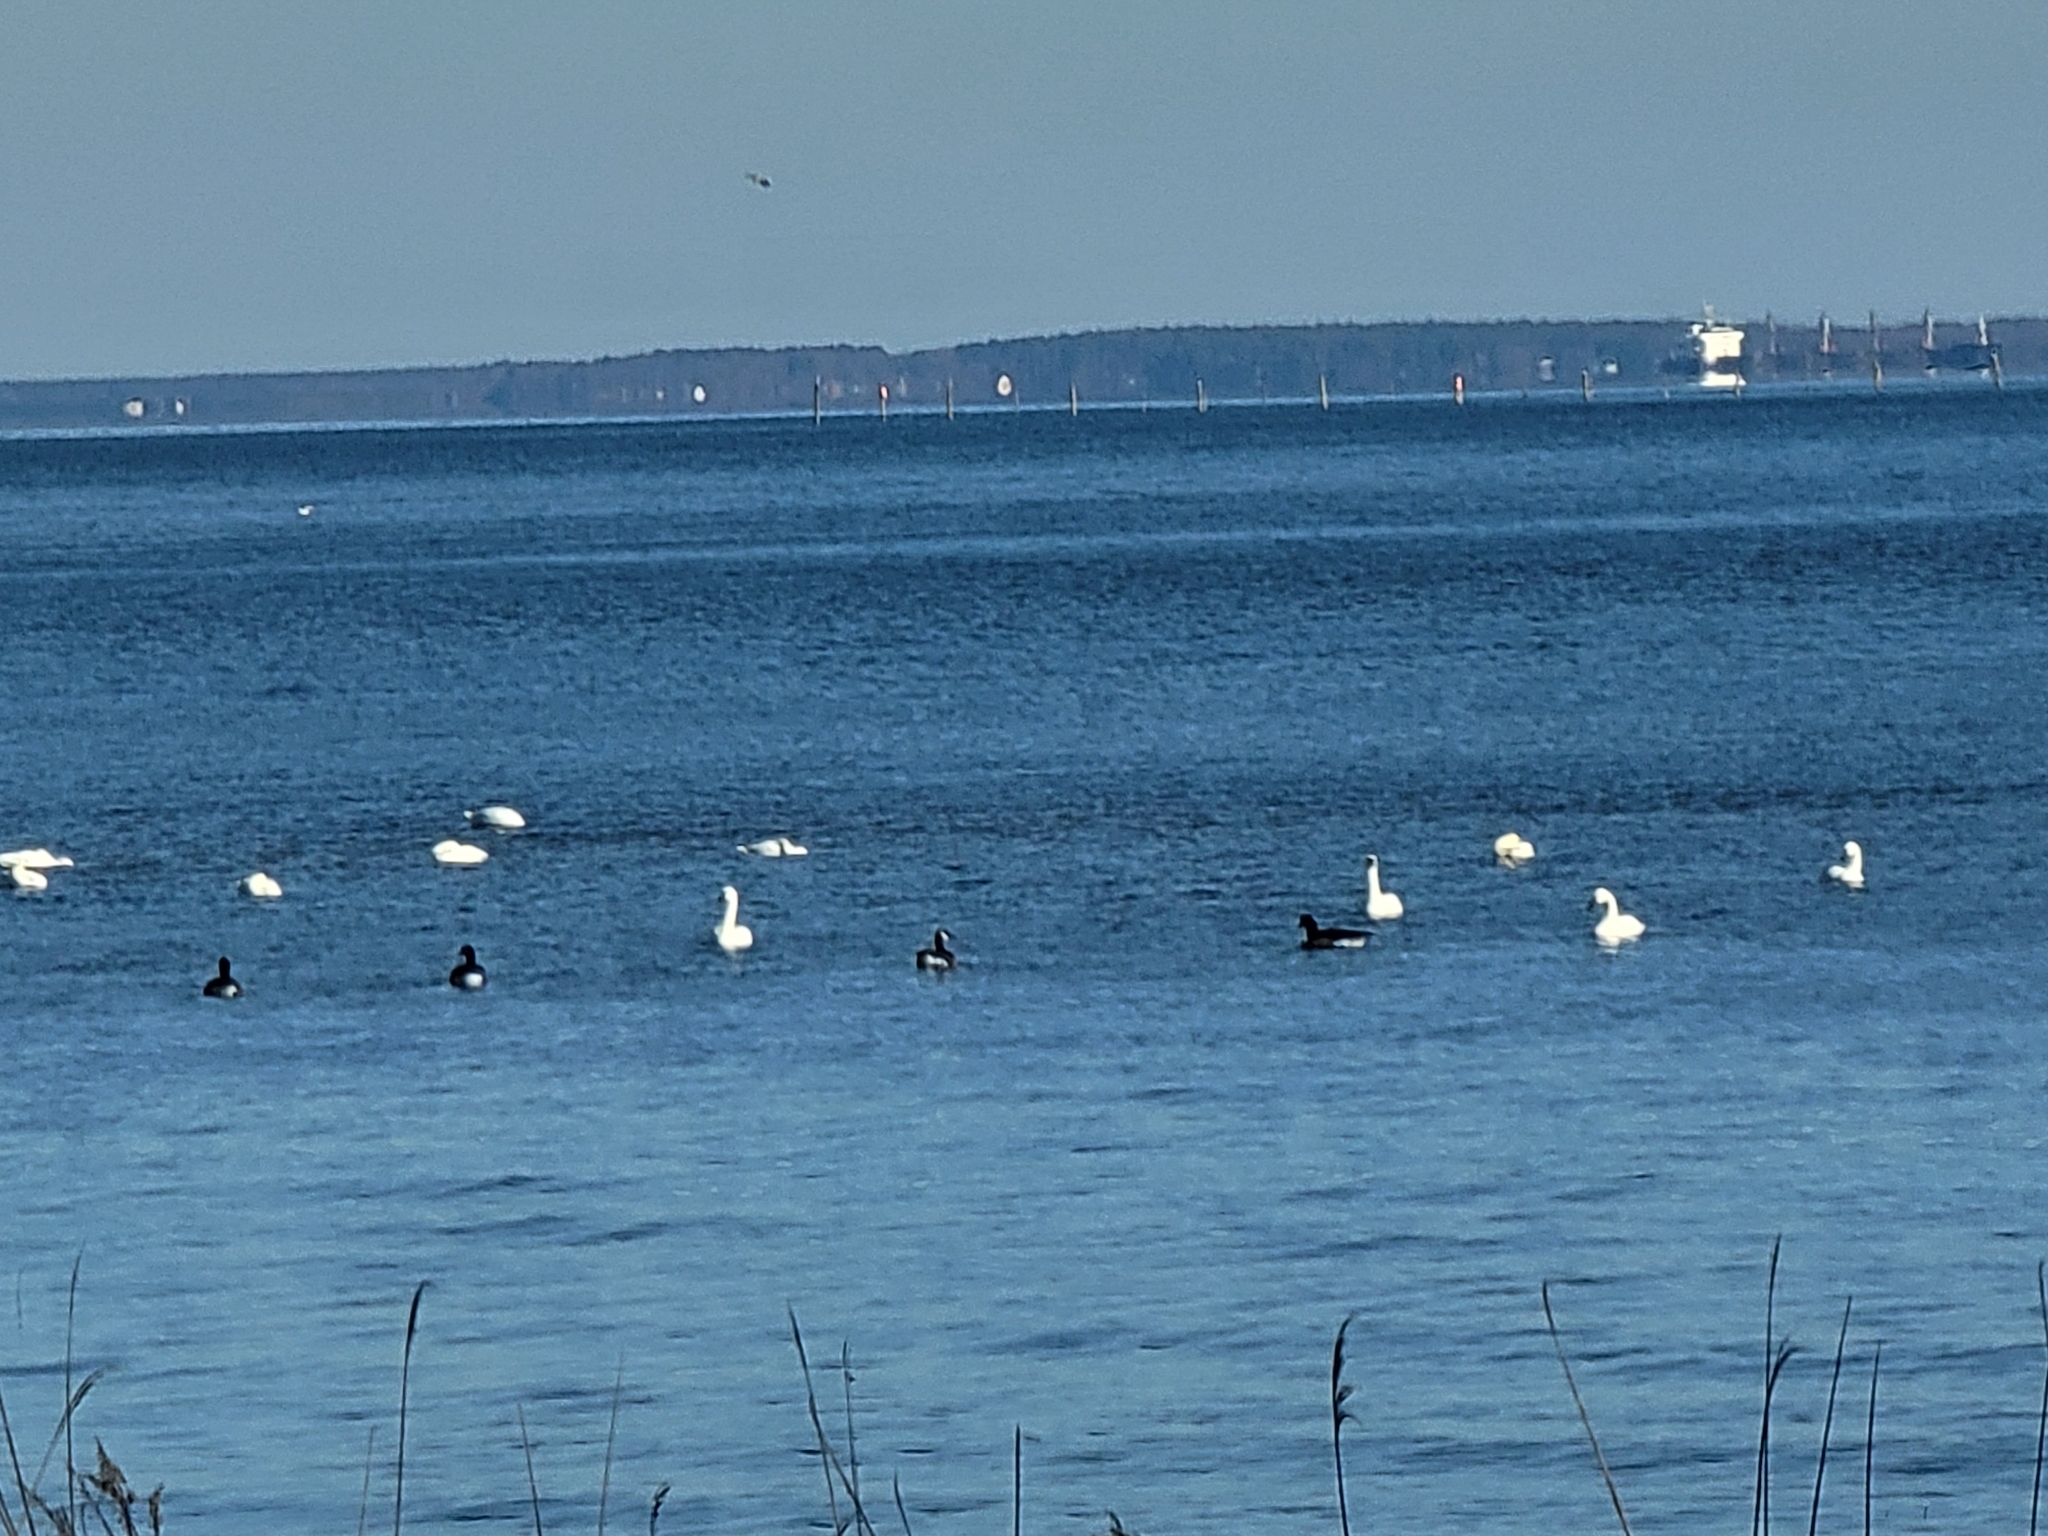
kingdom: Animalia
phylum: Chordata
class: Aves
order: Anseriformes
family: Anatidae
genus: Cygnus
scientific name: Cygnus columbianus
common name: Tundra swan
